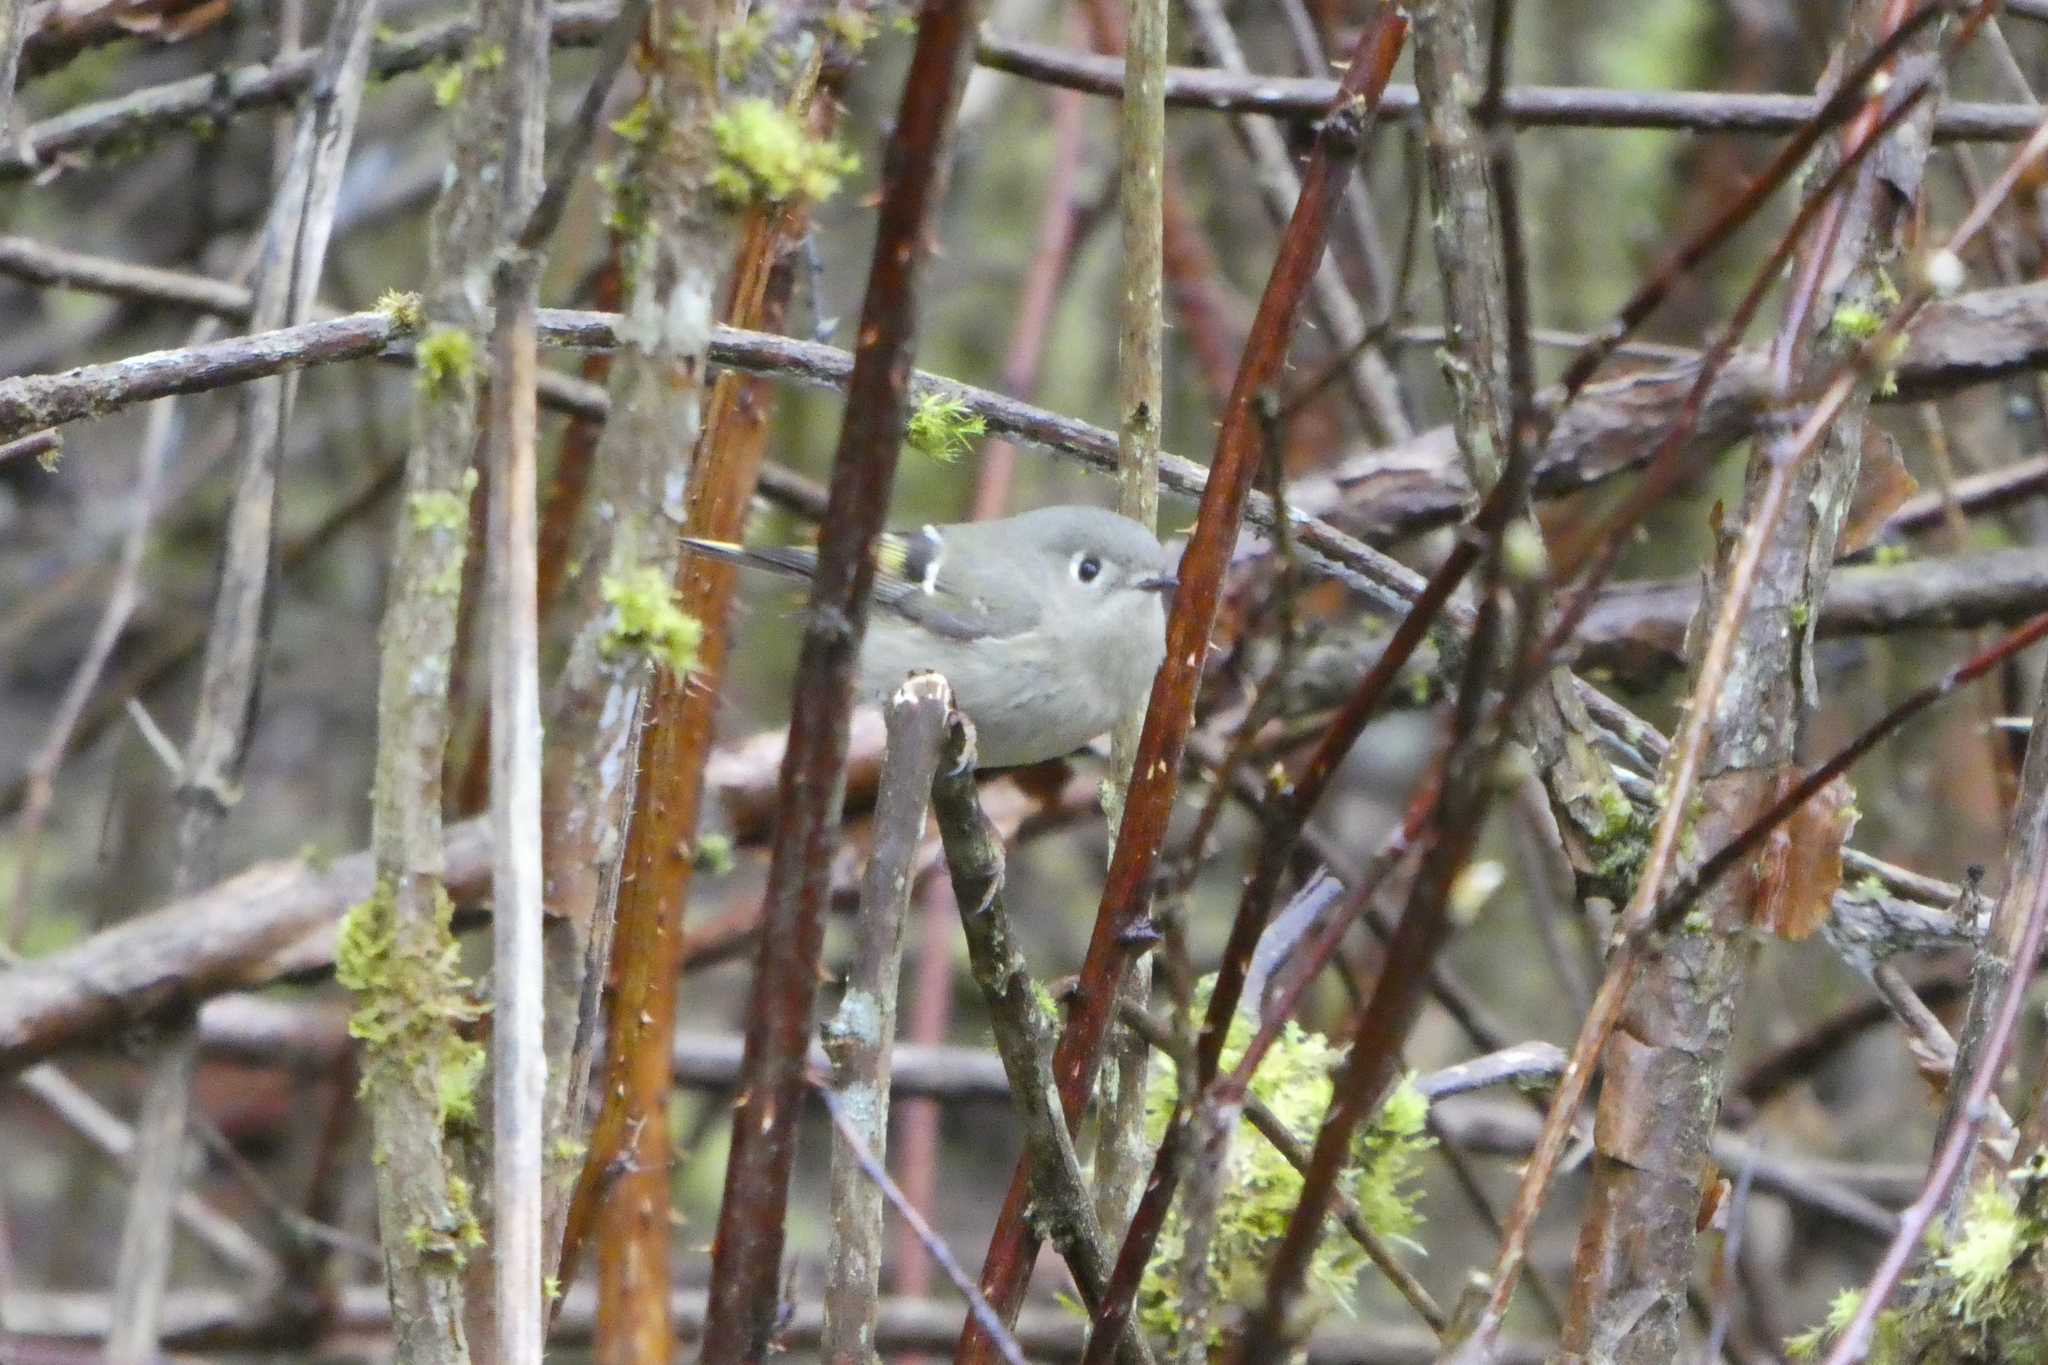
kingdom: Animalia
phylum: Chordata
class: Aves
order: Passeriformes
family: Regulidae
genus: Regulus
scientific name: Regulus calendula
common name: Ruby-crowned kinglet
